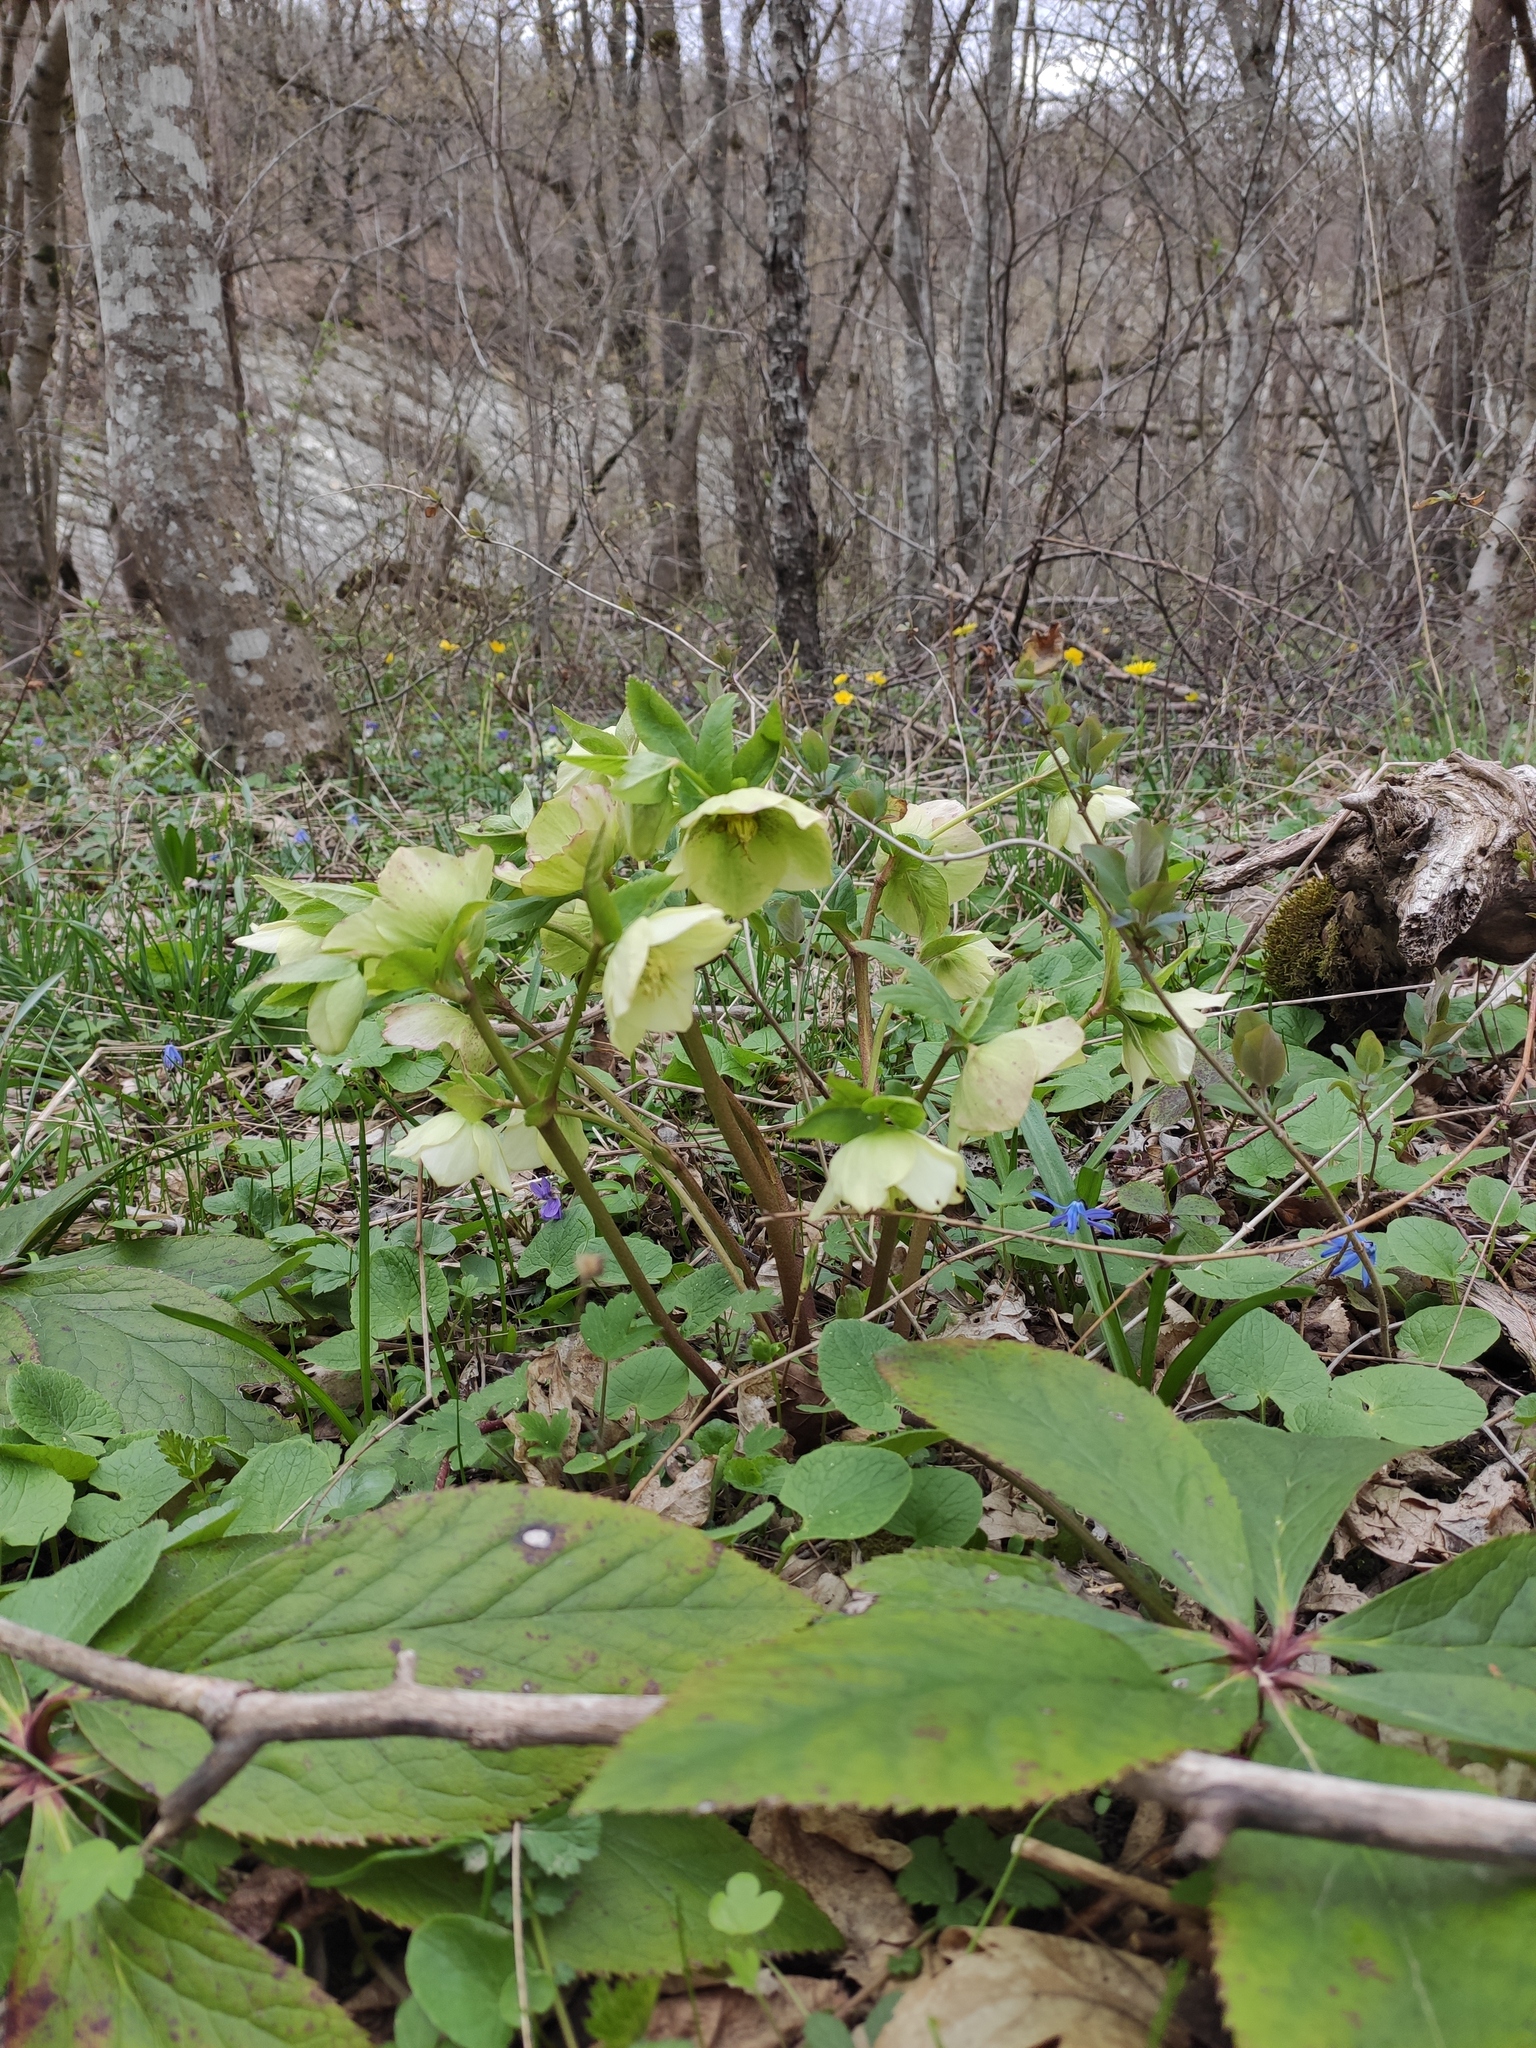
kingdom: Plantae
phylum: Tracheophyta
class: Magnoliopsida
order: Ranunculales
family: Ranunculaceae
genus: Helleborus
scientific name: Helleborus orientalis
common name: Lenten-rose
